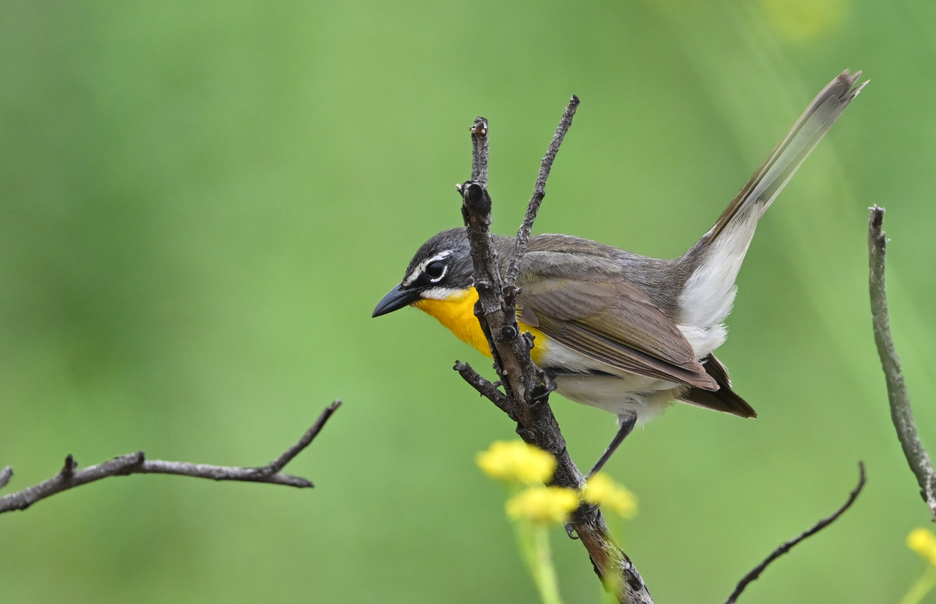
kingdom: Animalia
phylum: Chordata
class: Aves
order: Passeriformes
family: Parulidae
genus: Icteria
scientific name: Icteria virens
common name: Yellow-breasted chat
